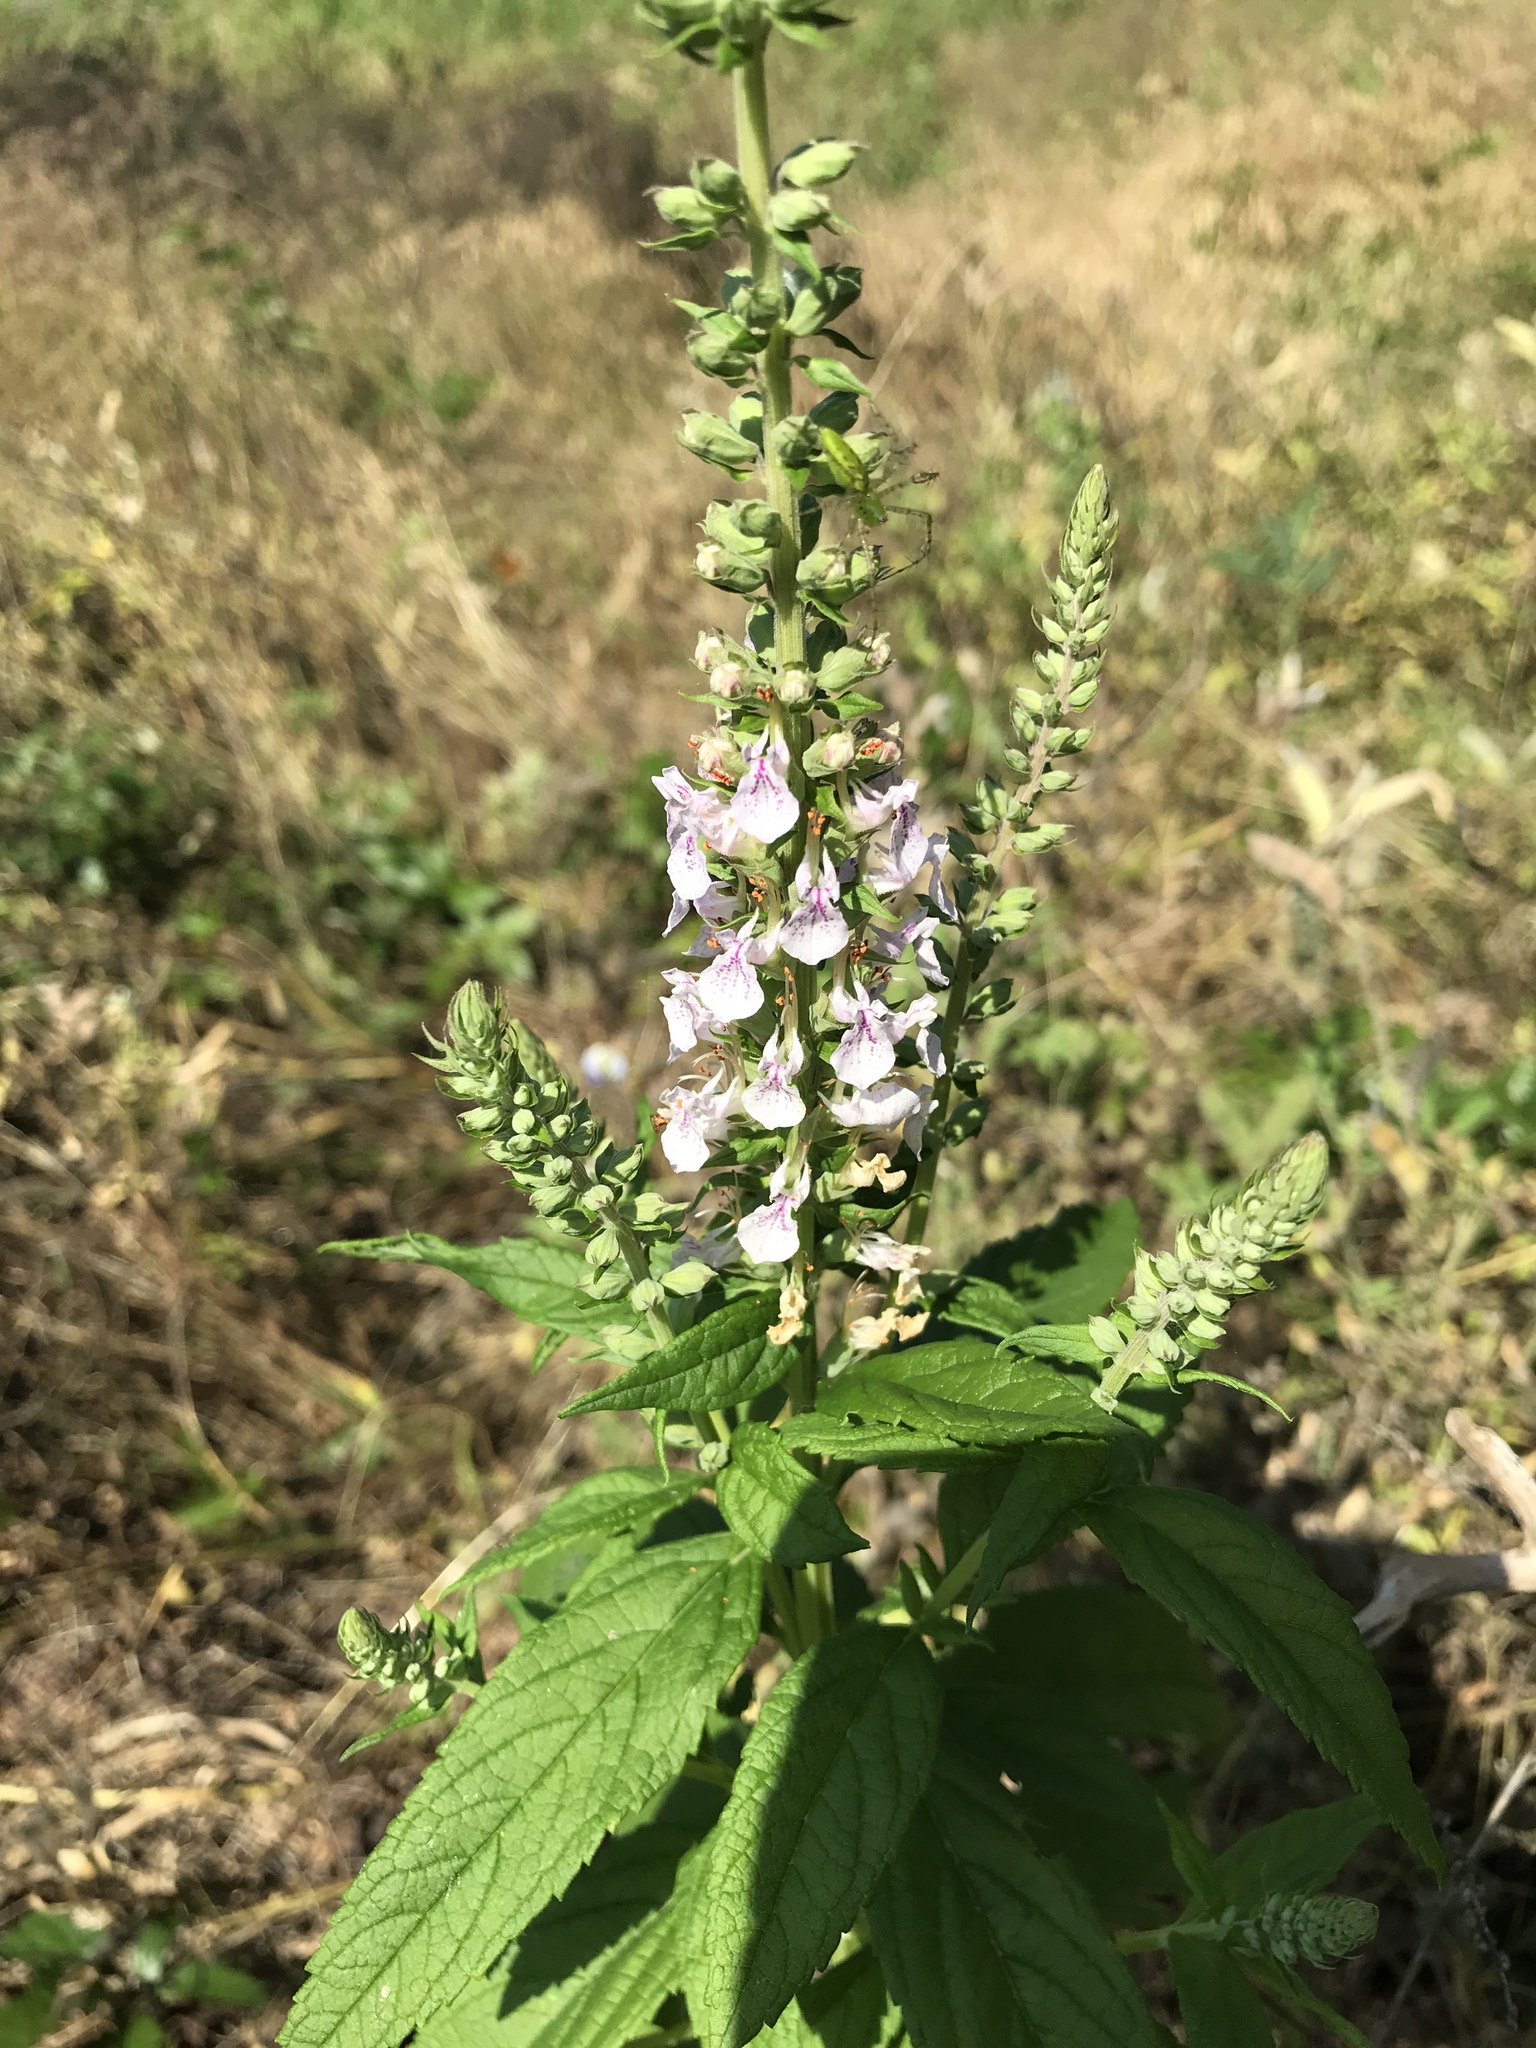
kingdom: Plantae
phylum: Tracheophyta
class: Magnoliopsida
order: Lamiales
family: Lamiaceae
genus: Teucrium
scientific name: Teucrium canadense
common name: American germander
